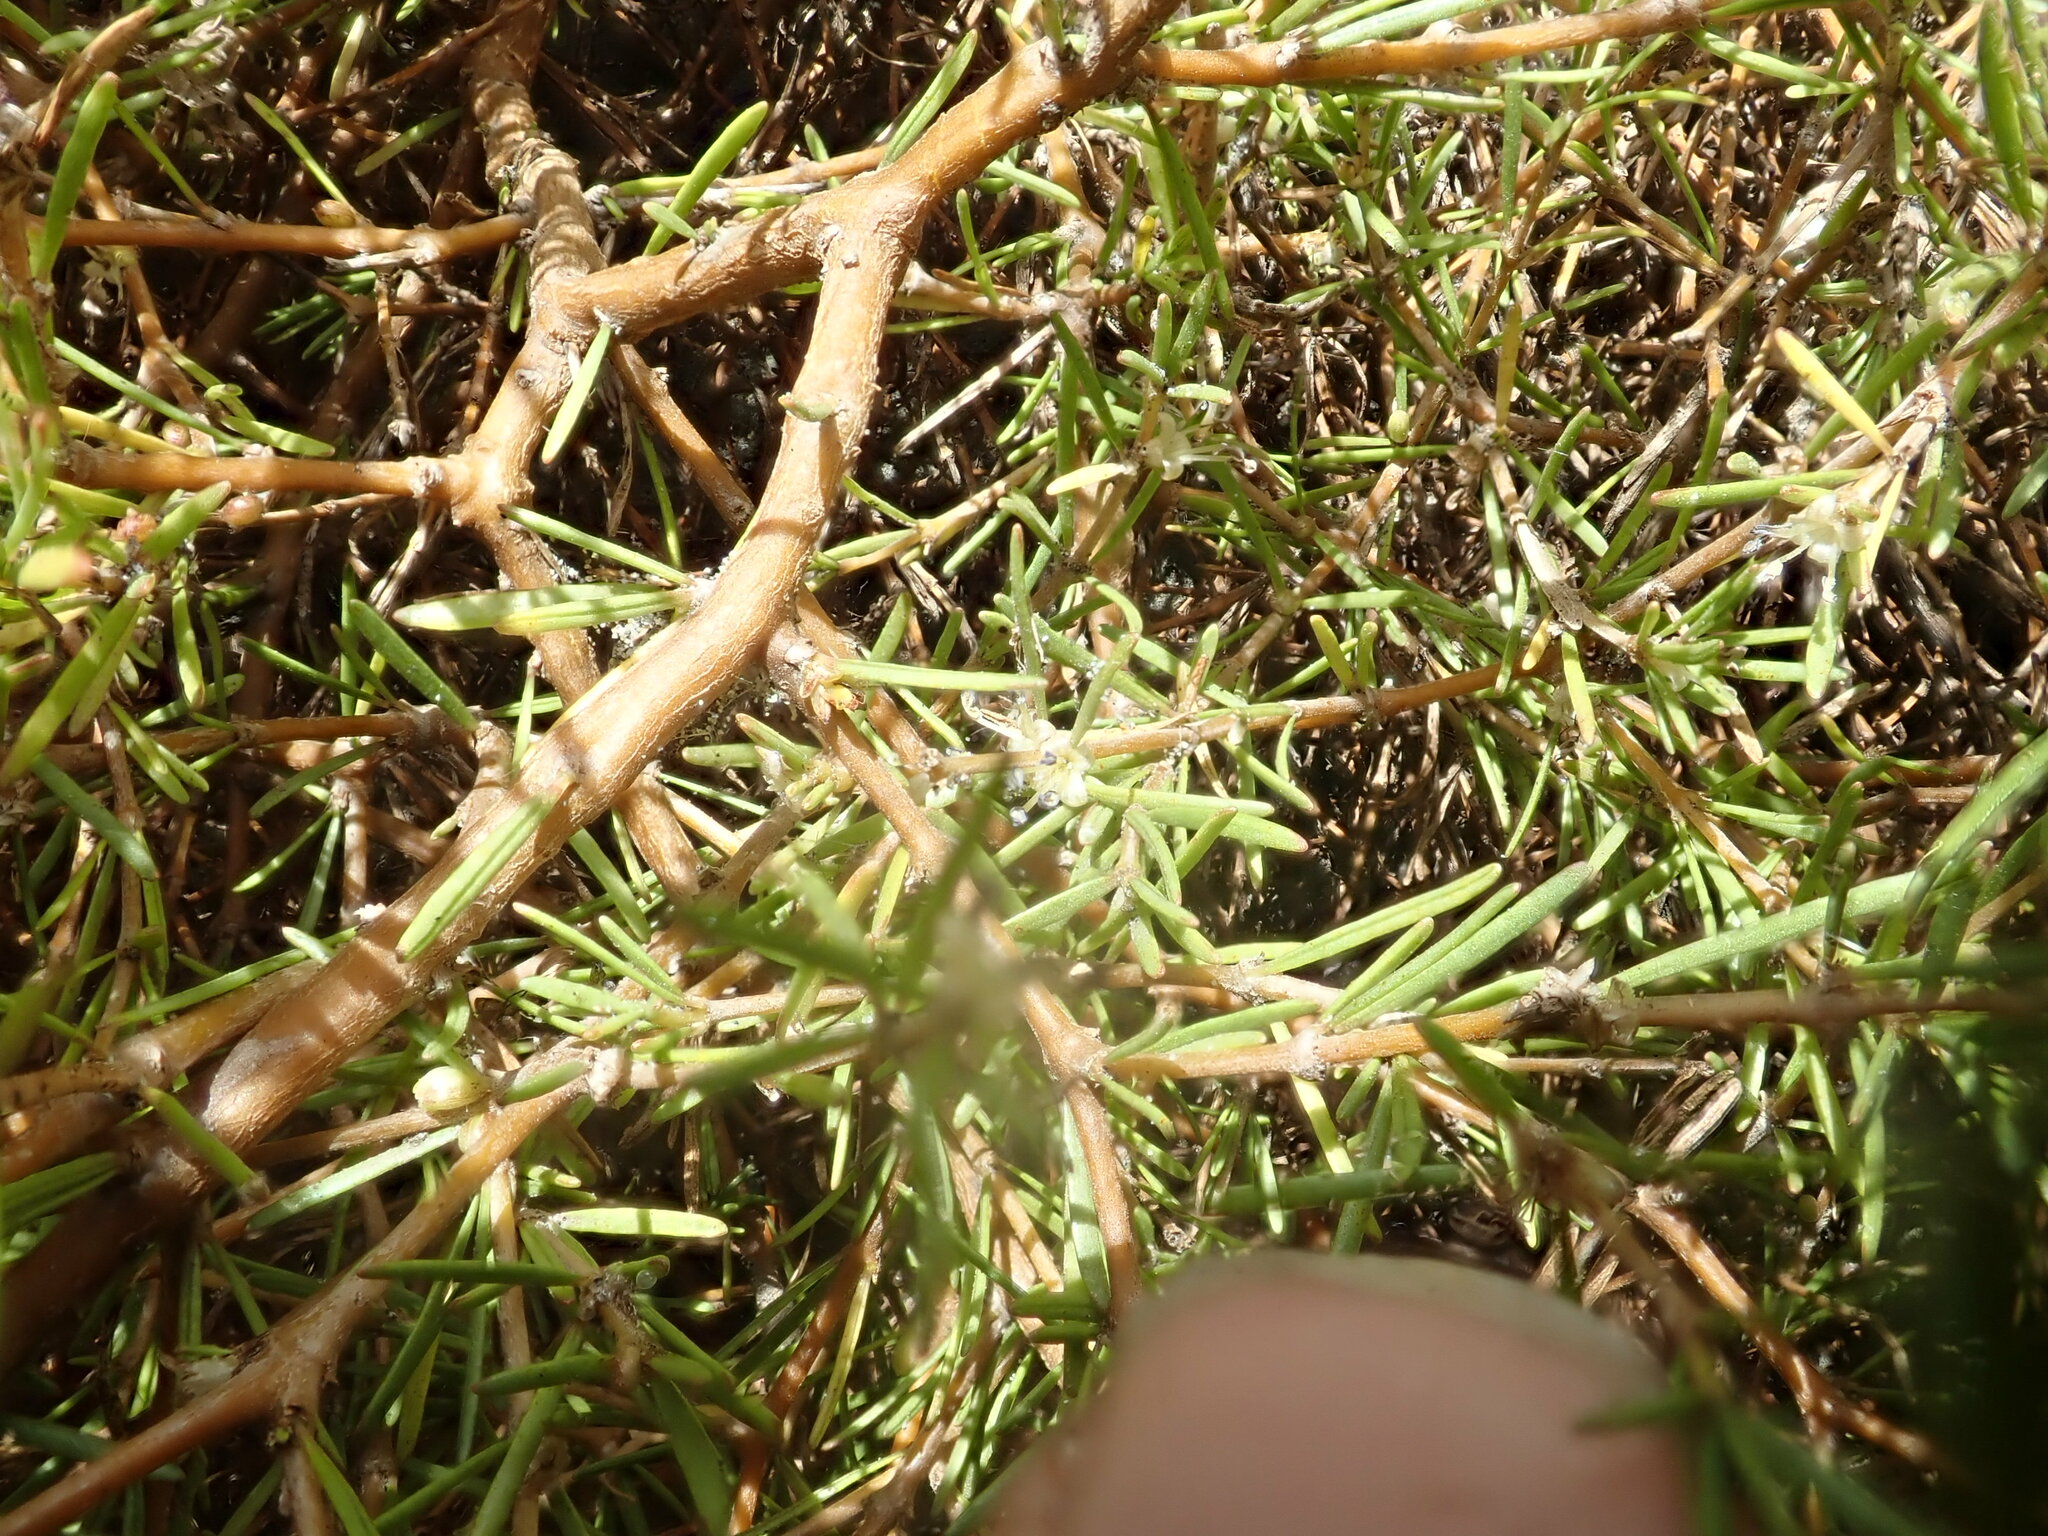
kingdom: Plantae
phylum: Tracheophyta
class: Magnoliopsida
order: Gentianales
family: Rubiaceae
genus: Coprosma
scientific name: Coprosma acerosa
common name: Sand coprosma
